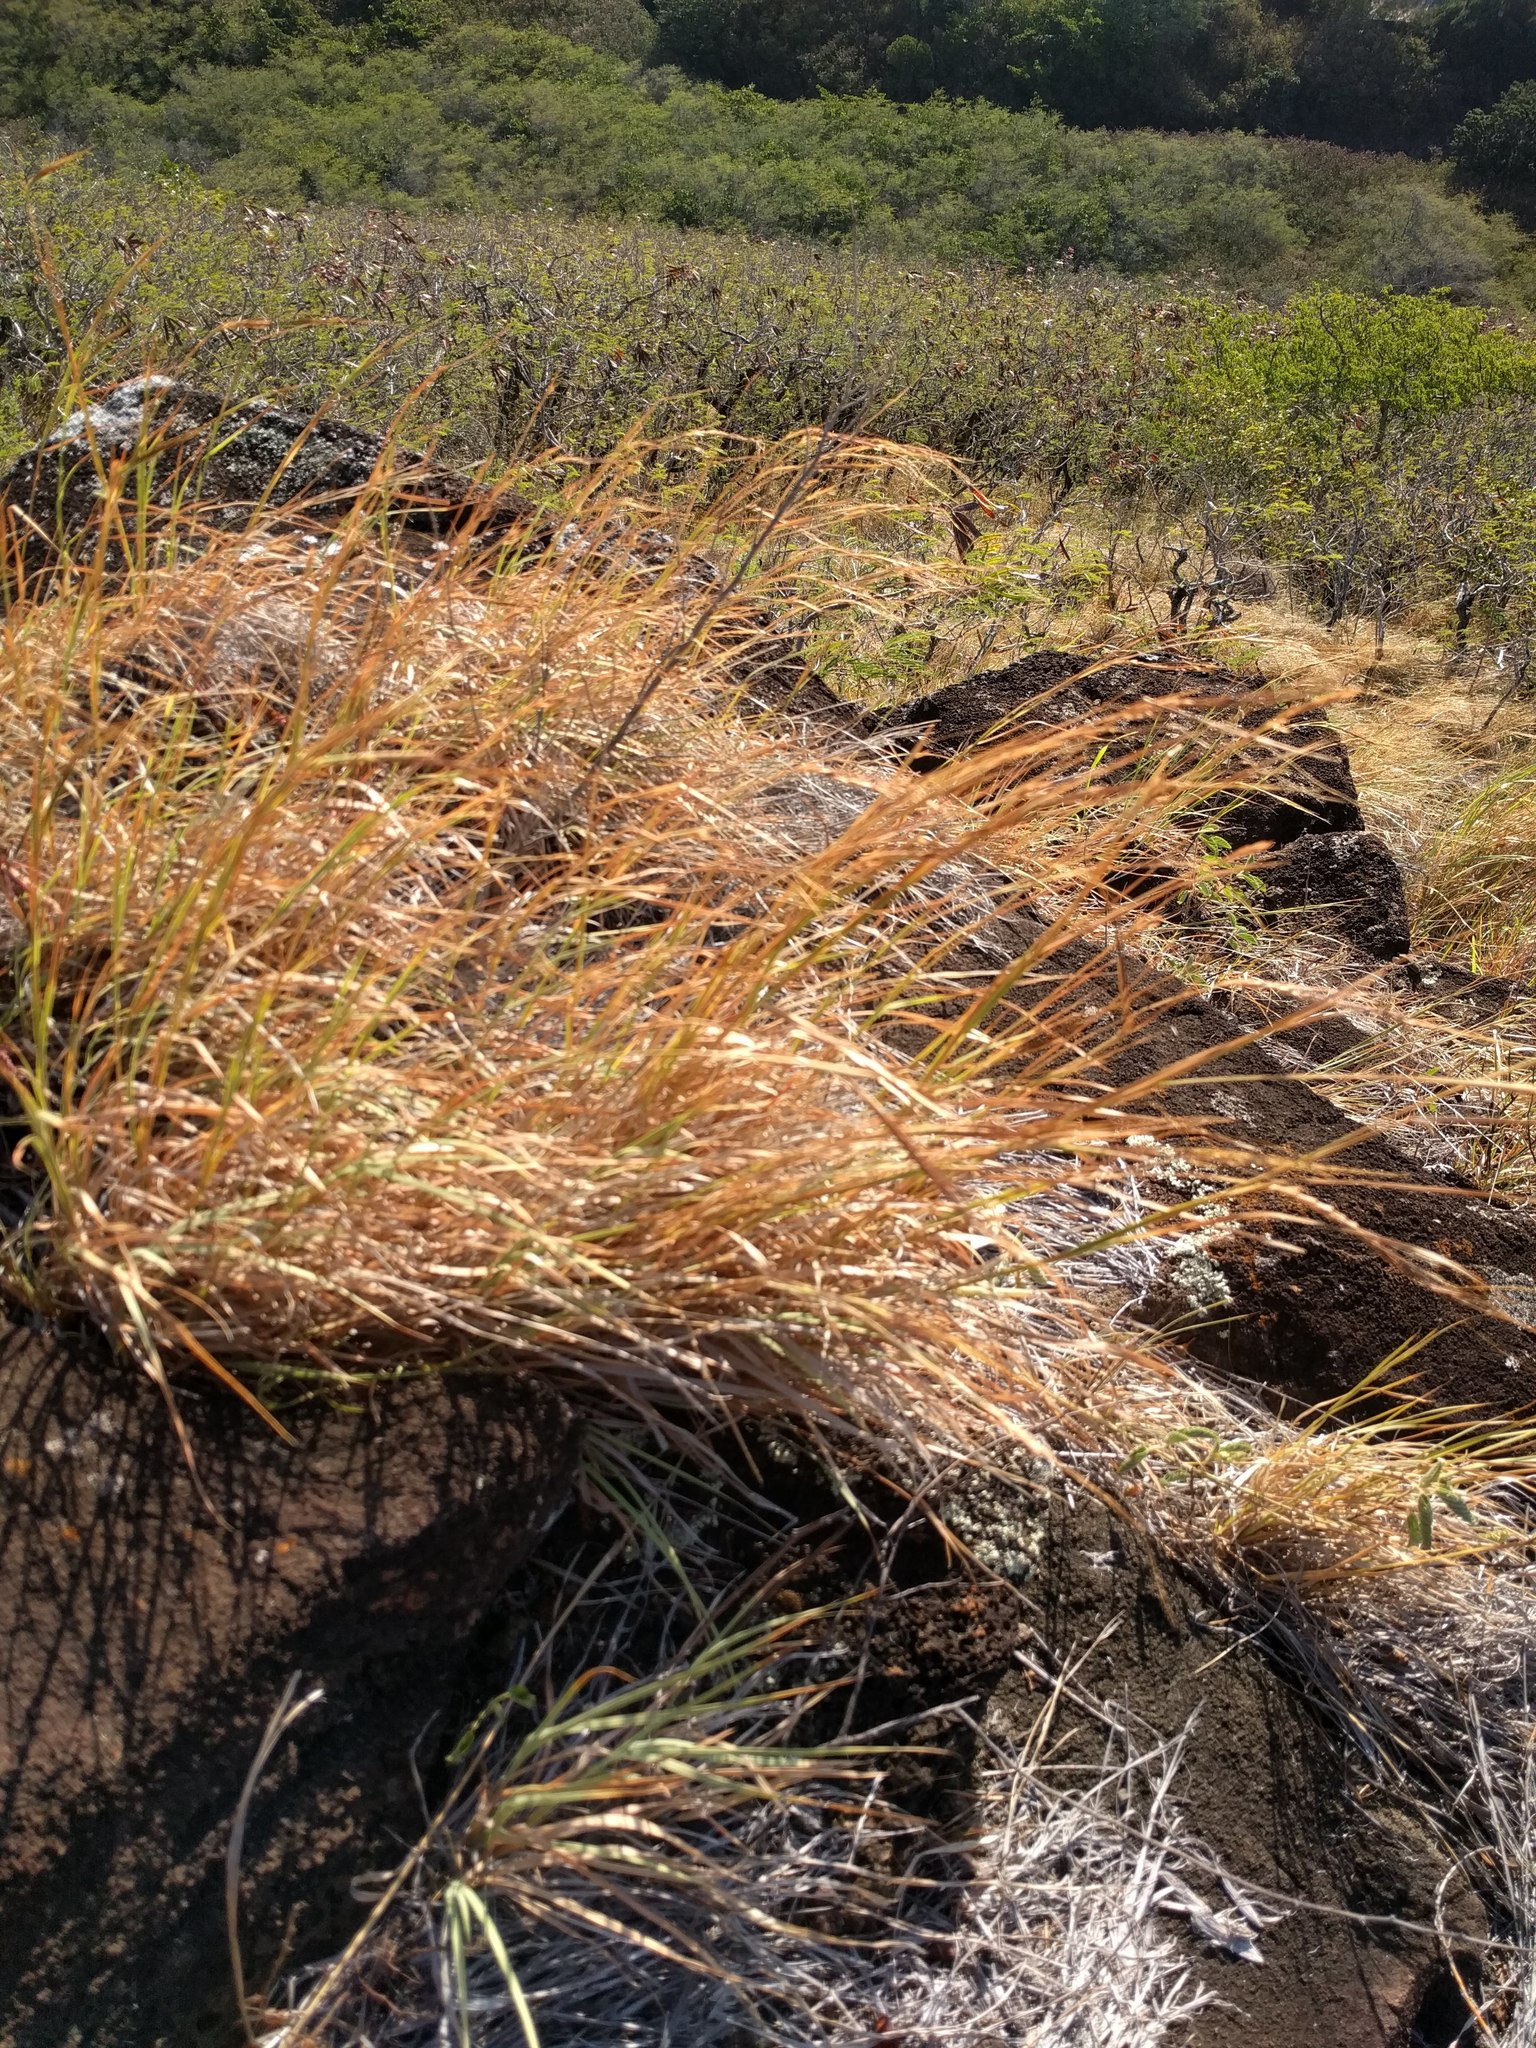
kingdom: Plantae
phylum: Tracheophyta
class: Liliopsida
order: Poales
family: Poaceae
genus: Heteropogon
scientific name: Heteropogon contortus
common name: Tanglehead
